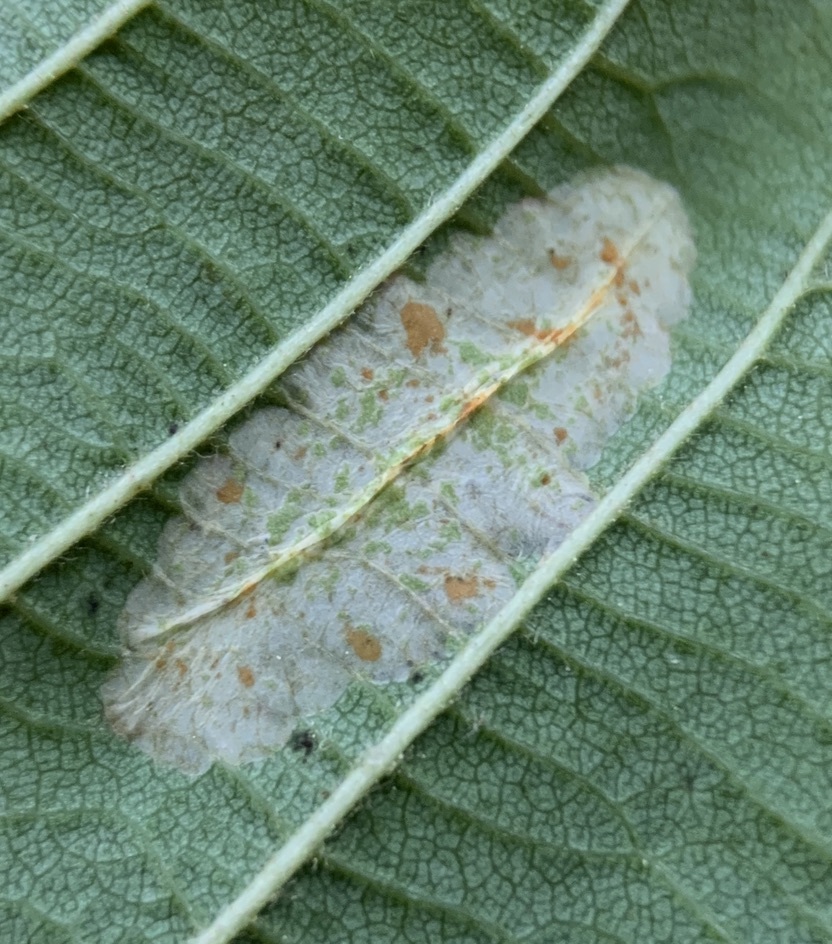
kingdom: Animalia
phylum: Arthropoda
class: Insecta
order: Lepidoptera
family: Gracillariidae
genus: Phyllonorycter
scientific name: Phyllonorycter auronitens
